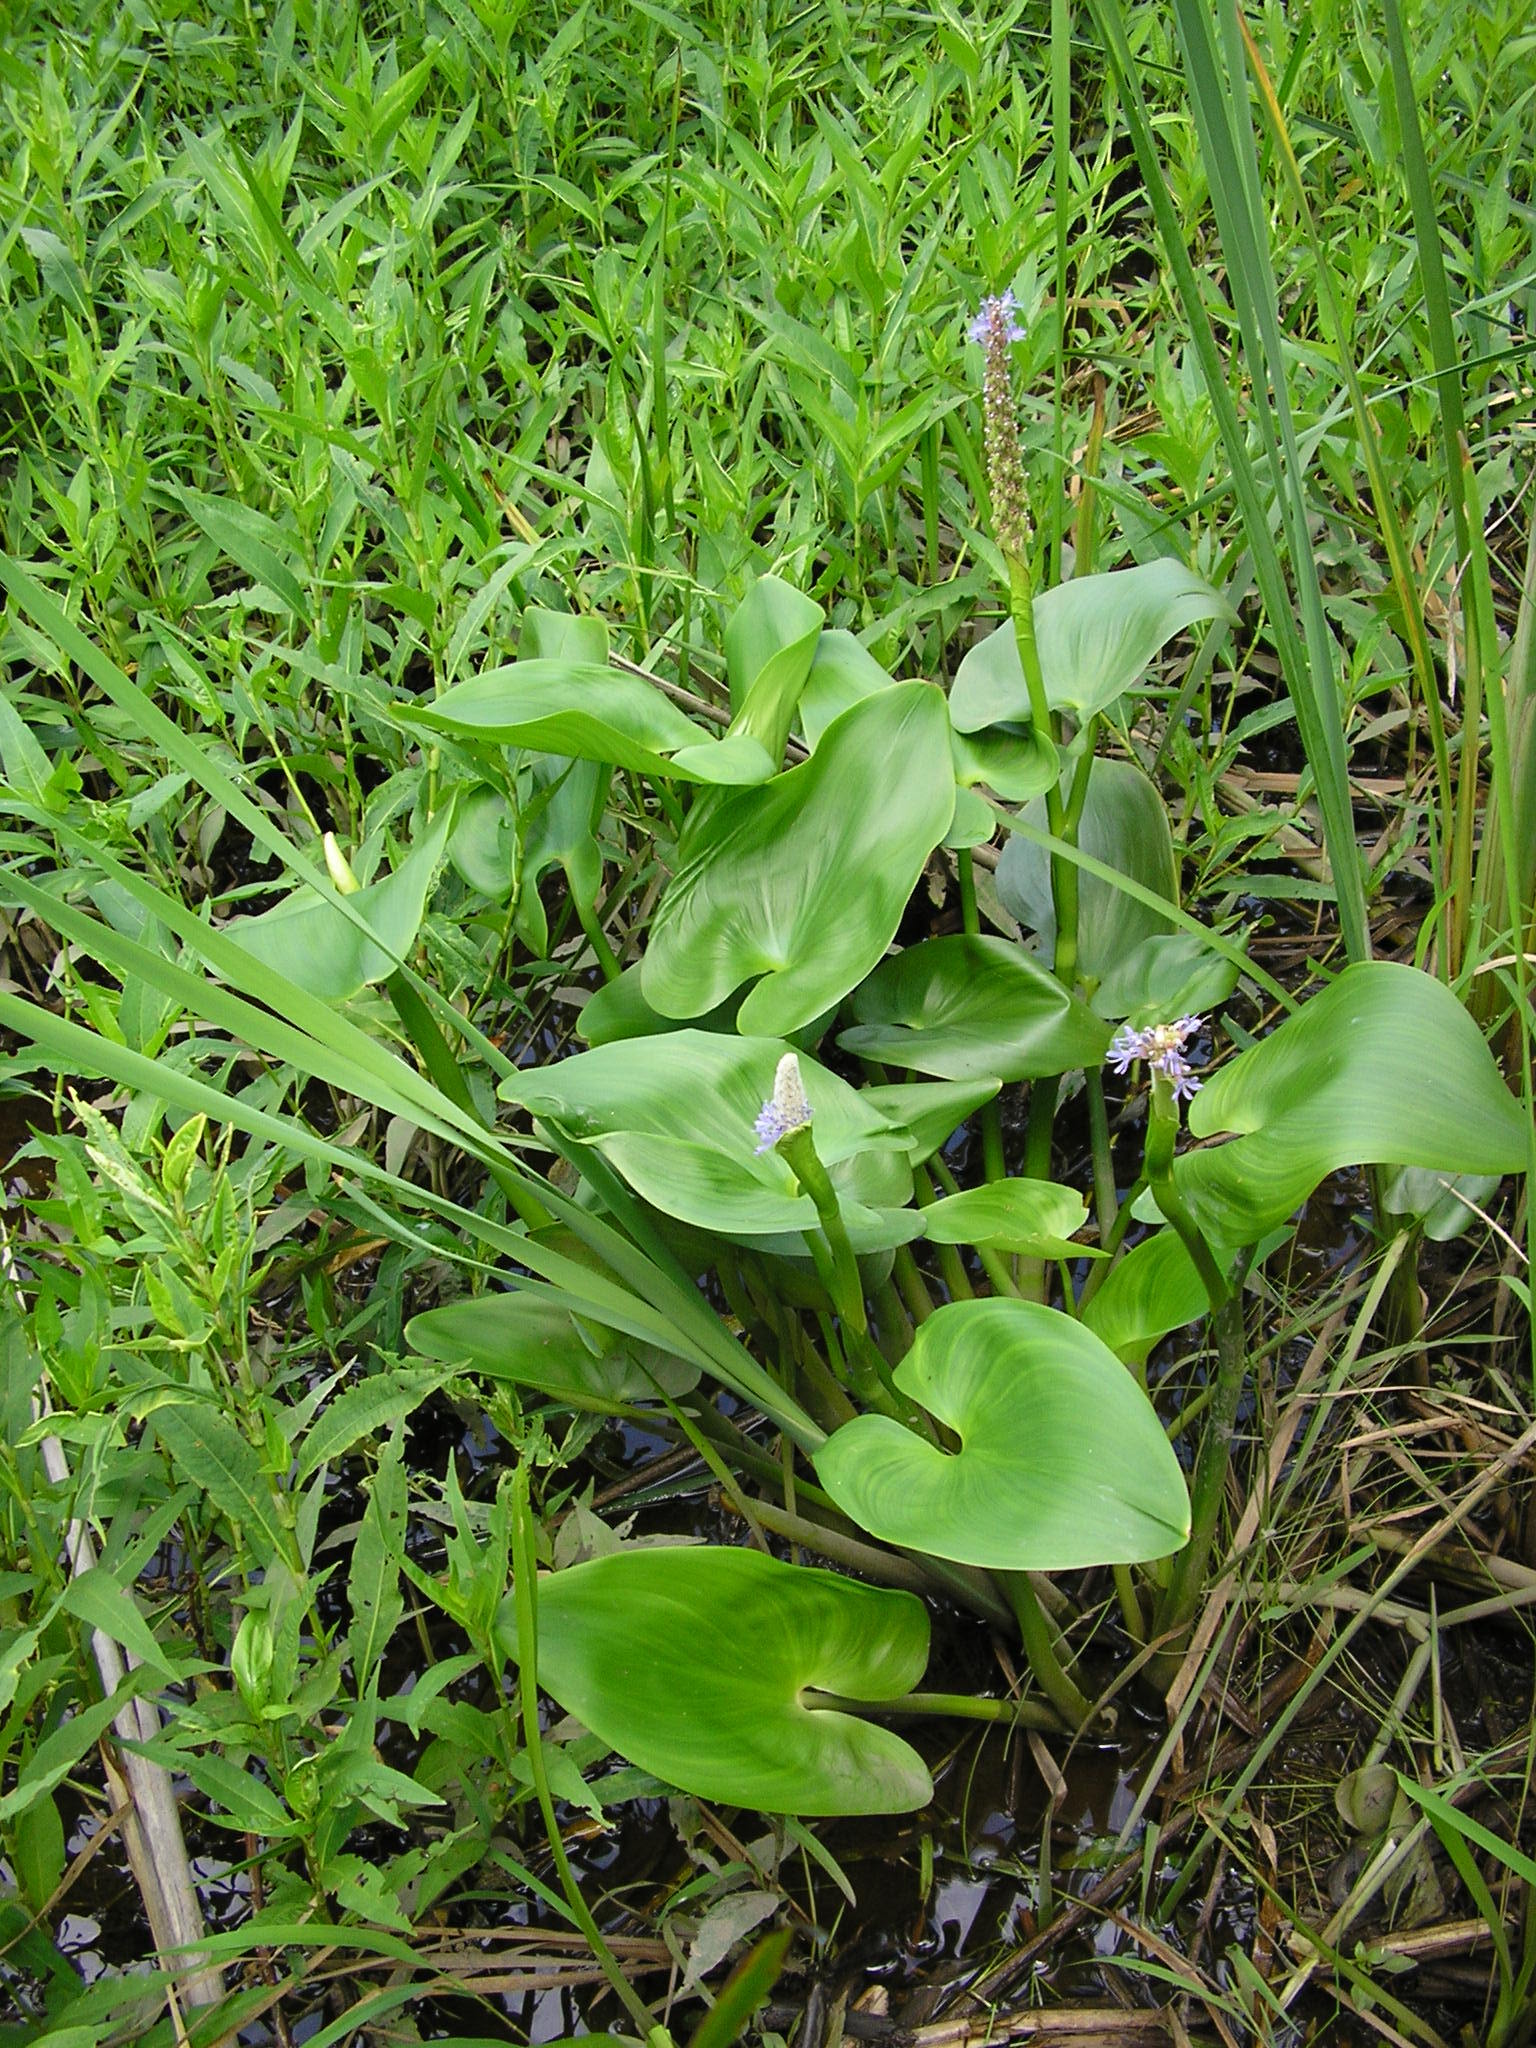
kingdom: Plantae
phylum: Tracheophyta
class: Liliopsida
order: Commelinales
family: Pontederiaceae
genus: Pontederia
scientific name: Pontederia cordata
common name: Pickerelweed
